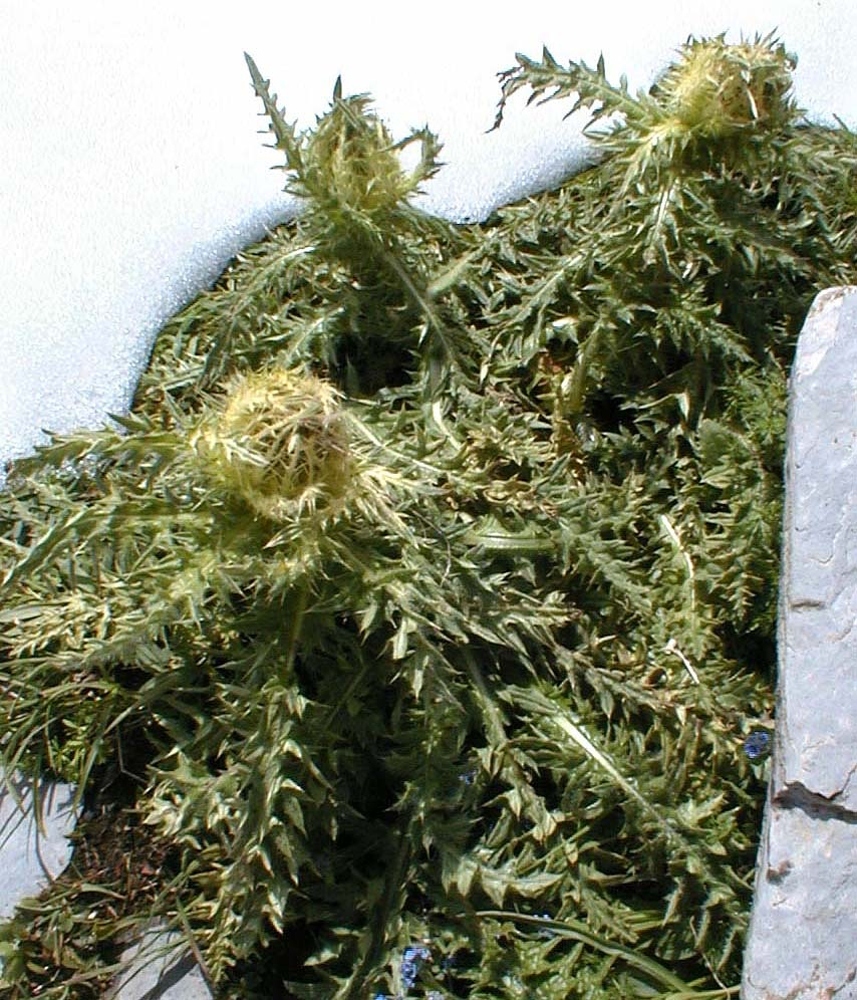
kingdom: Plantae
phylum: Tracheophyta
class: Magnoliopsida
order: Asterales
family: Asteraceae
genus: Cirsium
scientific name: Cirsium spinosissimum
